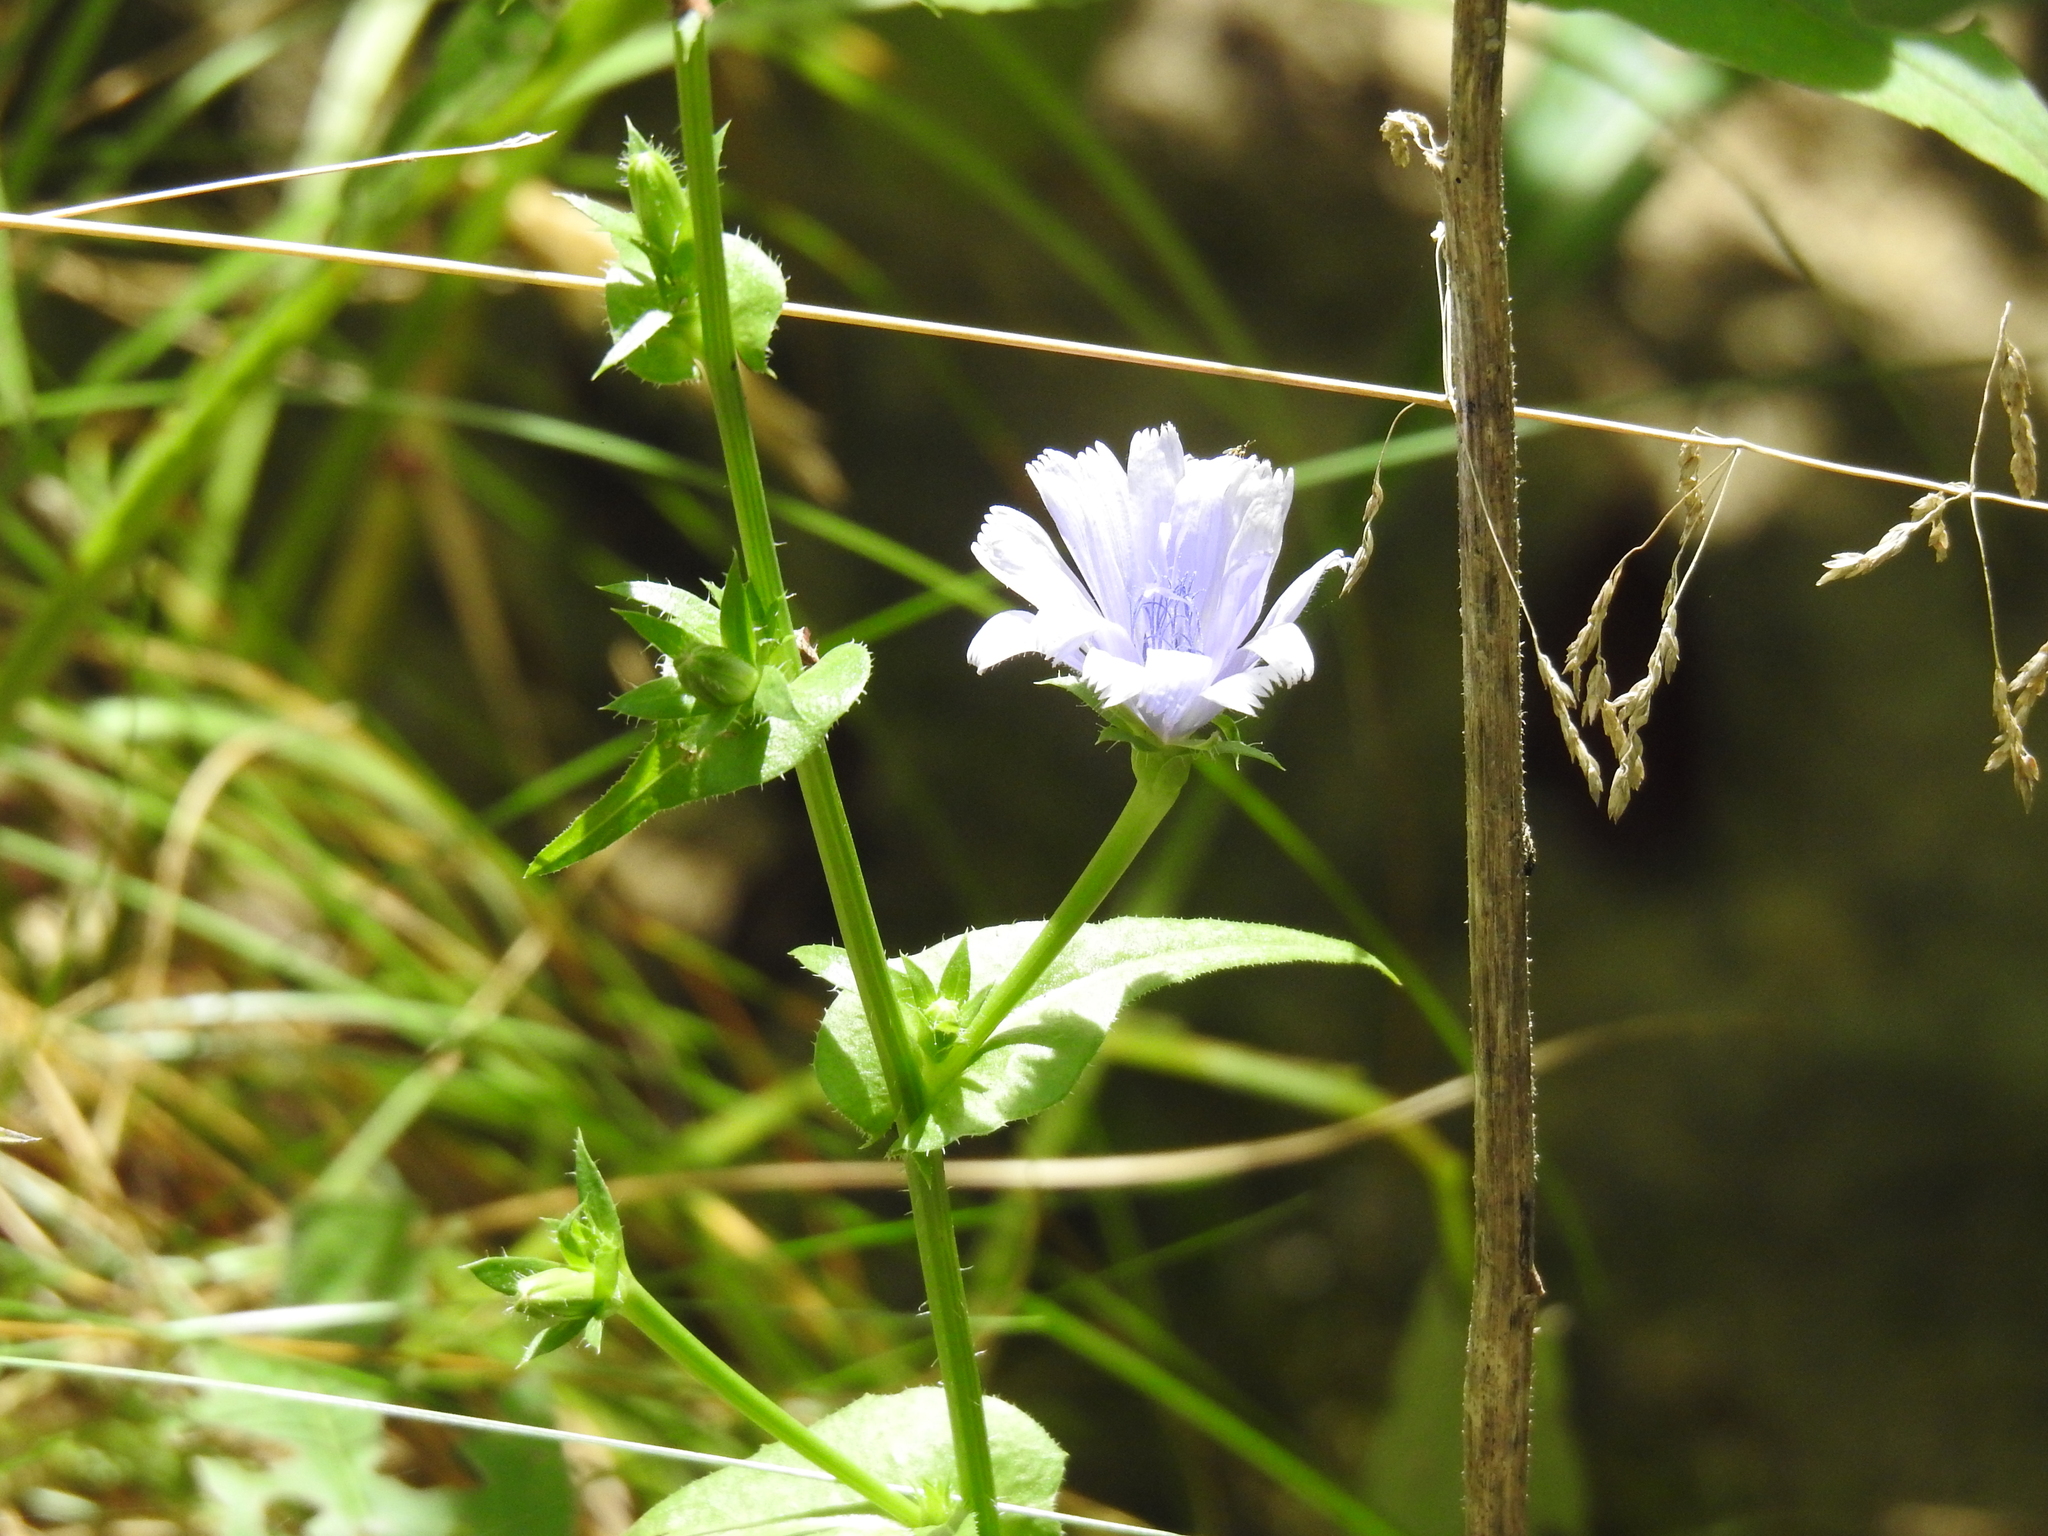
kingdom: Plantae
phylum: Tracheophyta
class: Magnoliopsida
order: Asterales
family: Asteraceae
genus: Cichorium
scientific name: Cichorium intybus
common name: Chicory
